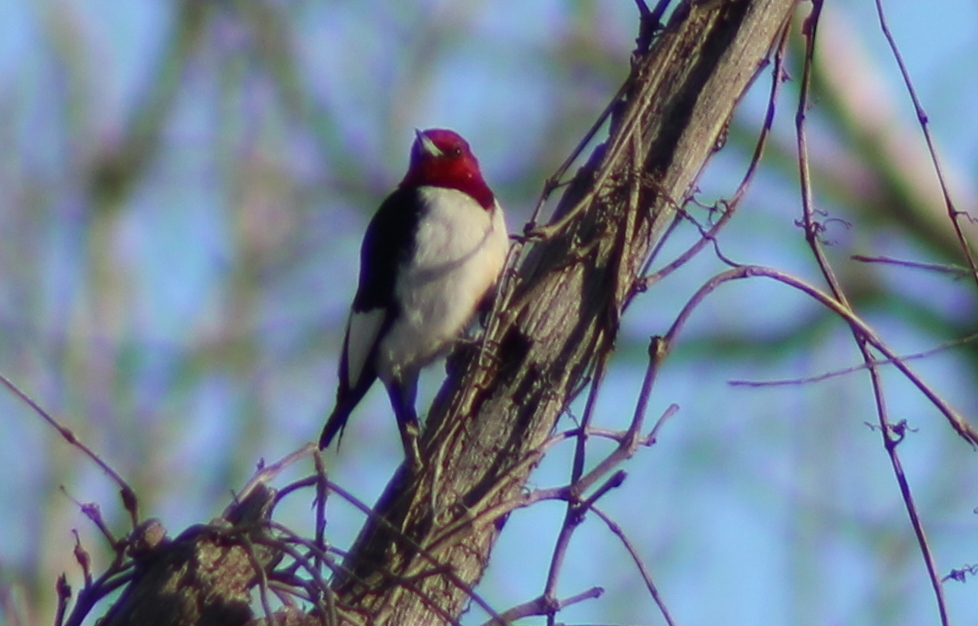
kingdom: Animalia
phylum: Chordata
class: Aves
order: Piciformes
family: Picidae
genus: Melanerpes
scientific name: Melanerpes erythrocephalus
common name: Red-headed woodpecker
